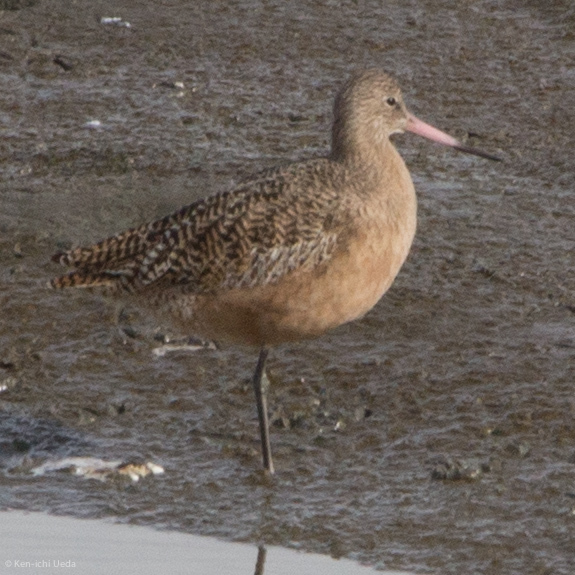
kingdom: Animalia
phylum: Chordata
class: Aves
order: Charadriiformes
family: Scolopacidae
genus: Limosa
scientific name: Limosa fedoa
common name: Marbled godwit
